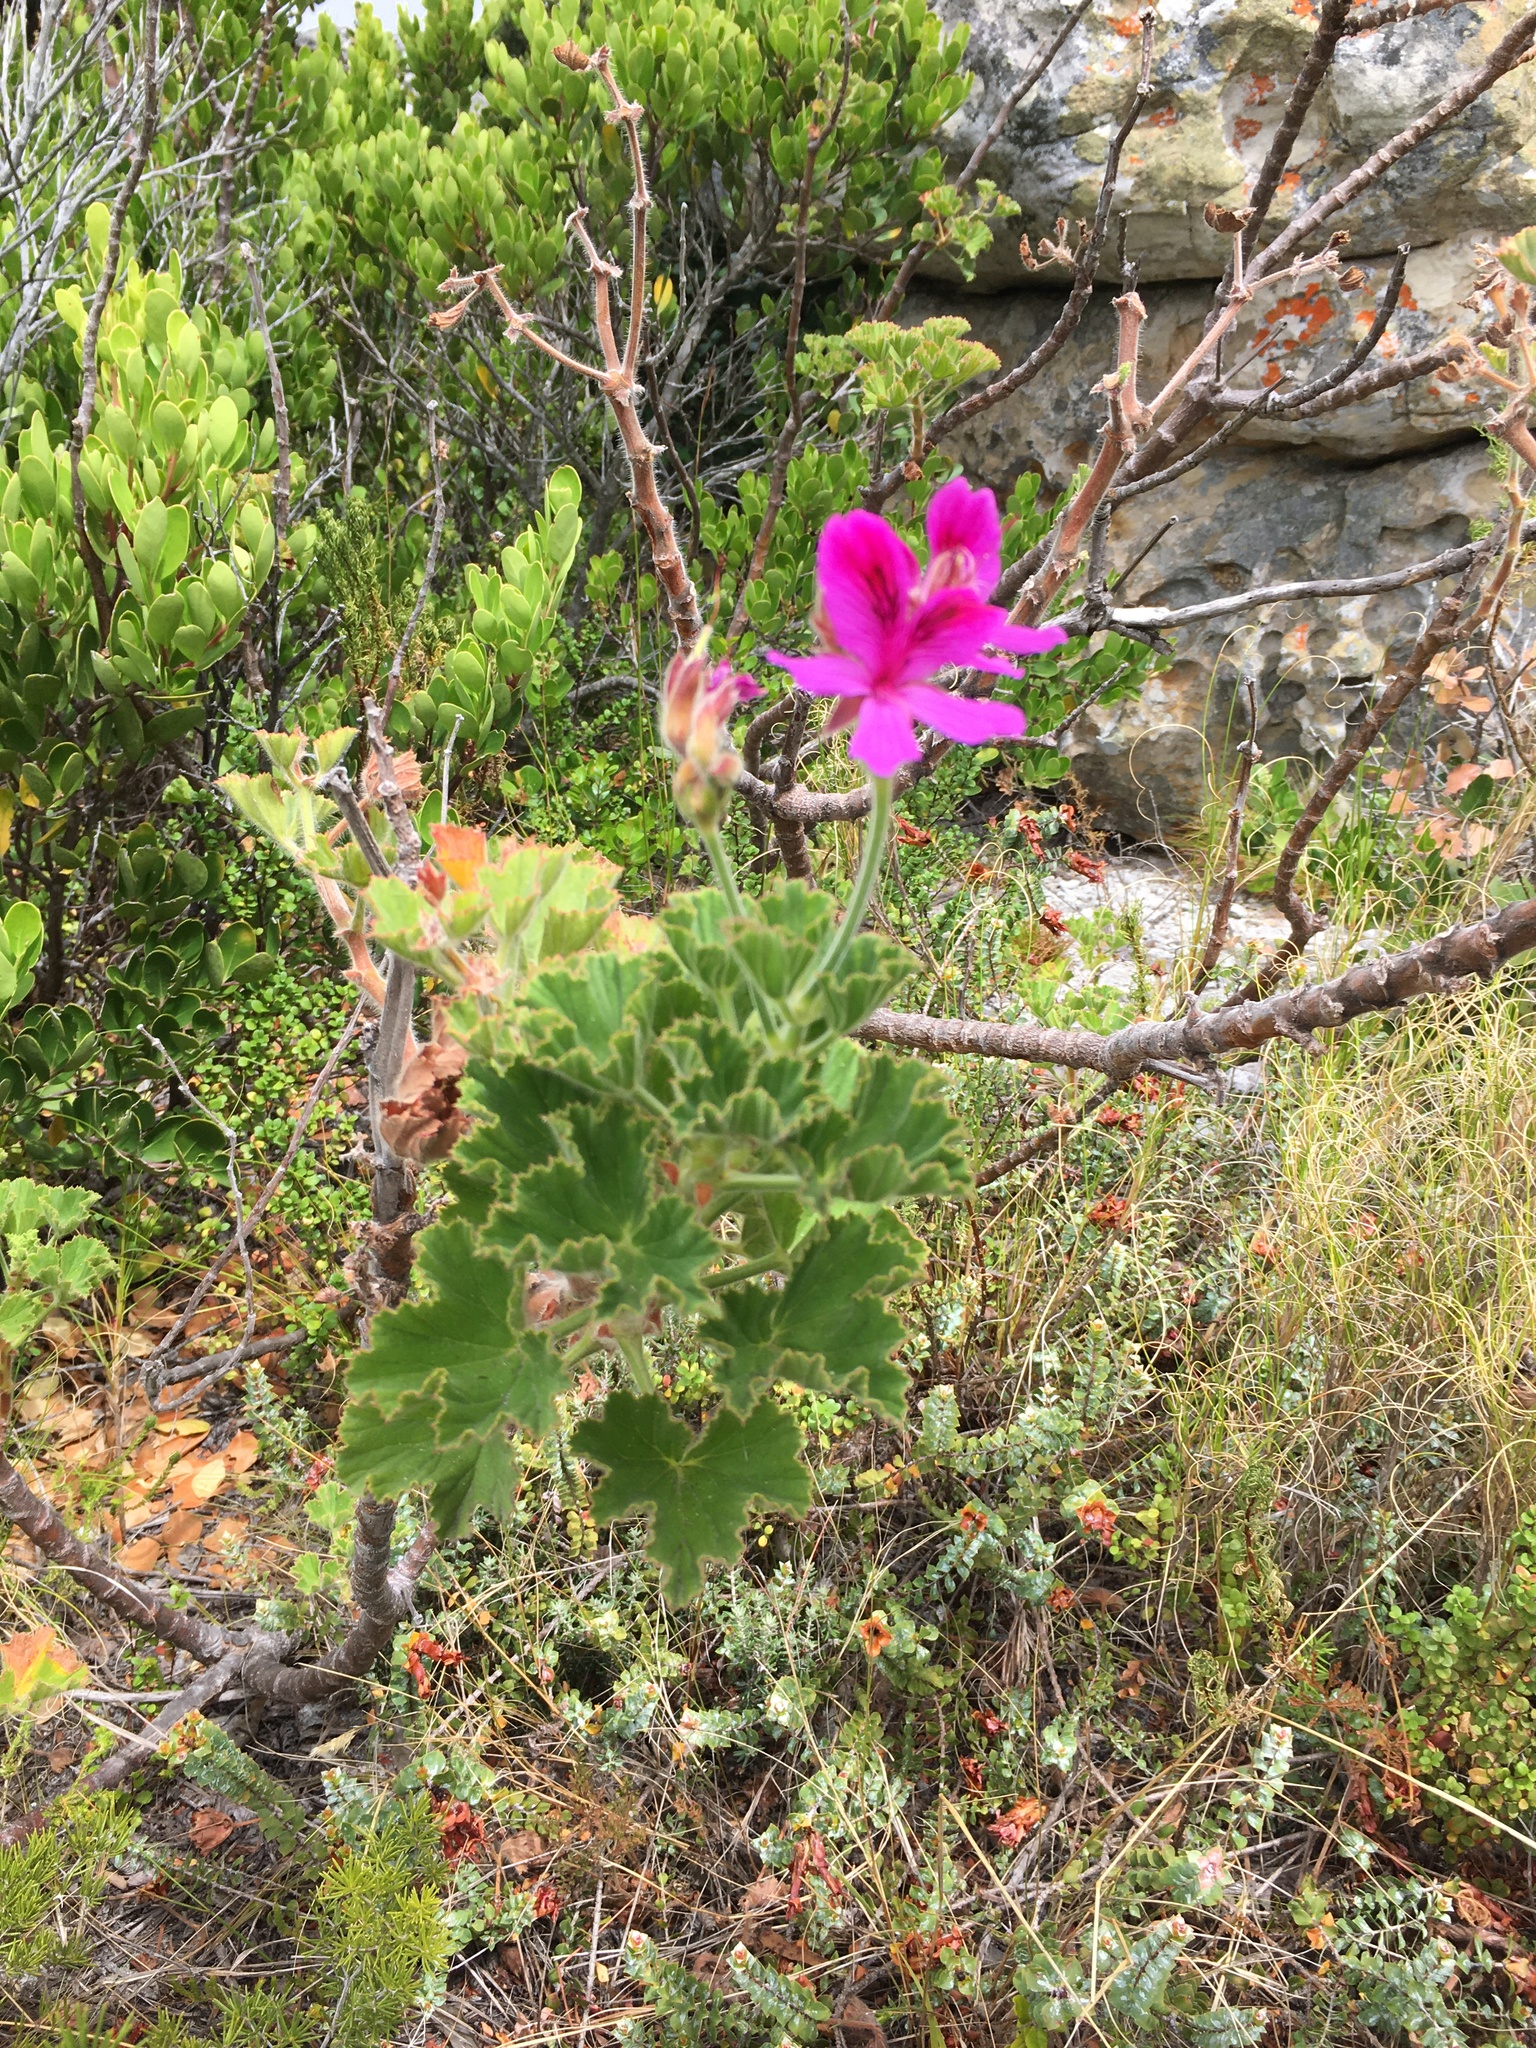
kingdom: Plantae
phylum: Tracheophyta
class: Magnoliopsida
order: Geraniales
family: Geraniaceae
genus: Pelargonium
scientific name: Pelargonium cucullatum
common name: Tree pelargonium
